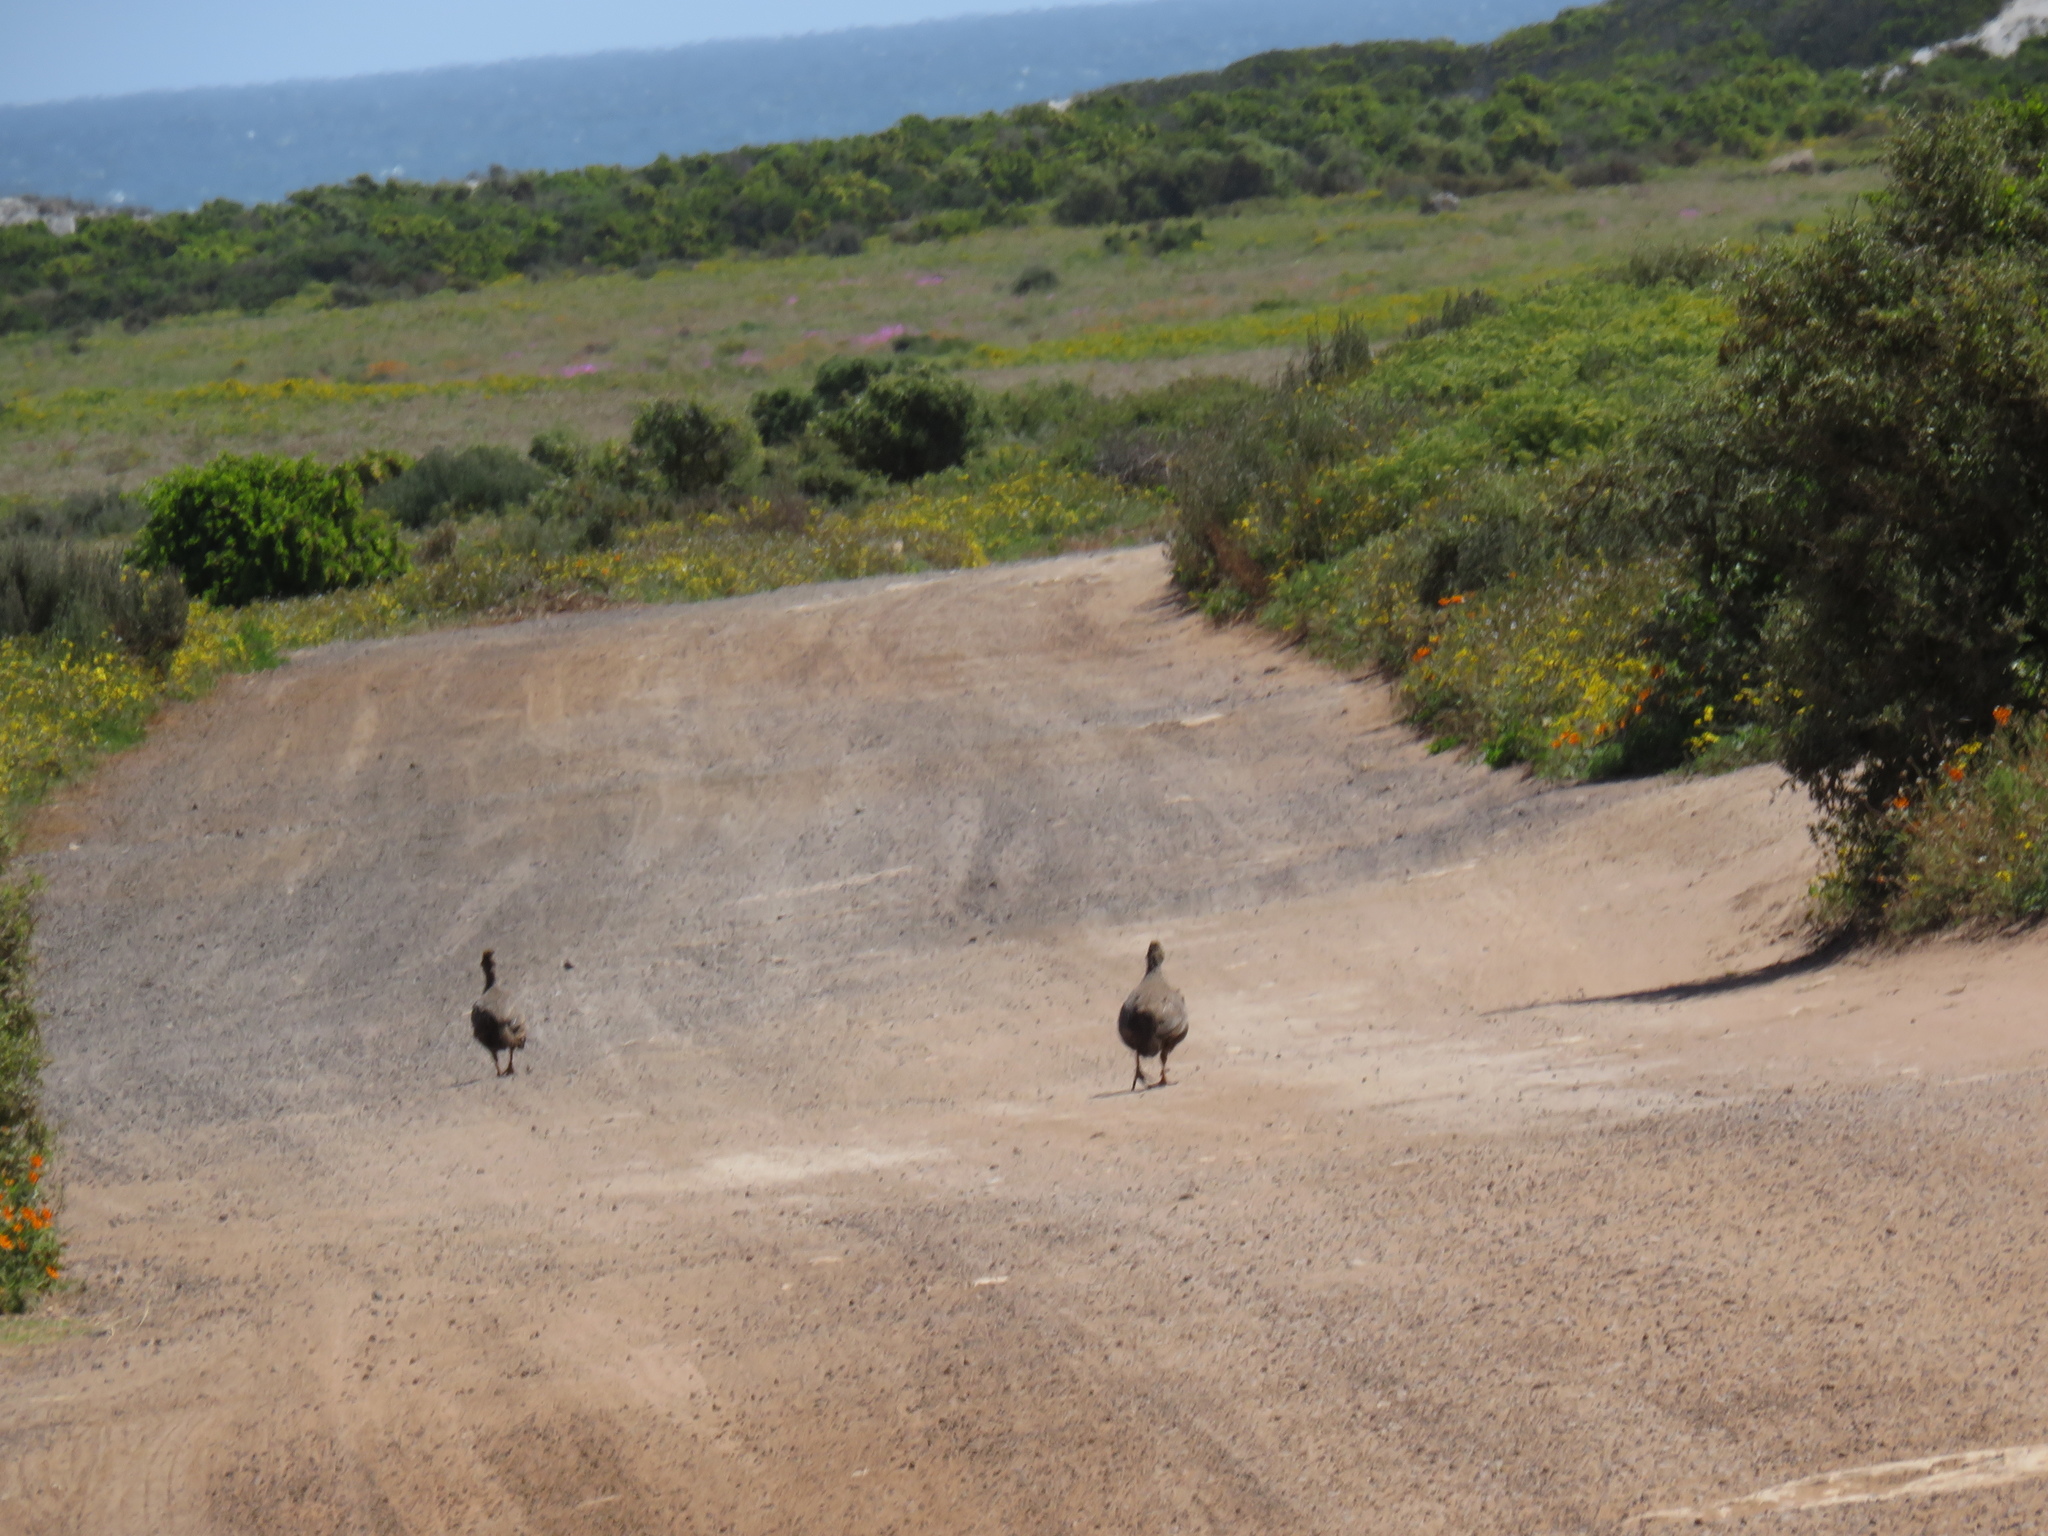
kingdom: Animalia
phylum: Chordata
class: Aves
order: Galliformes
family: Phasianidae
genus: Pternistis
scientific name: Pternistis capensis
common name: Cape spurfowl
